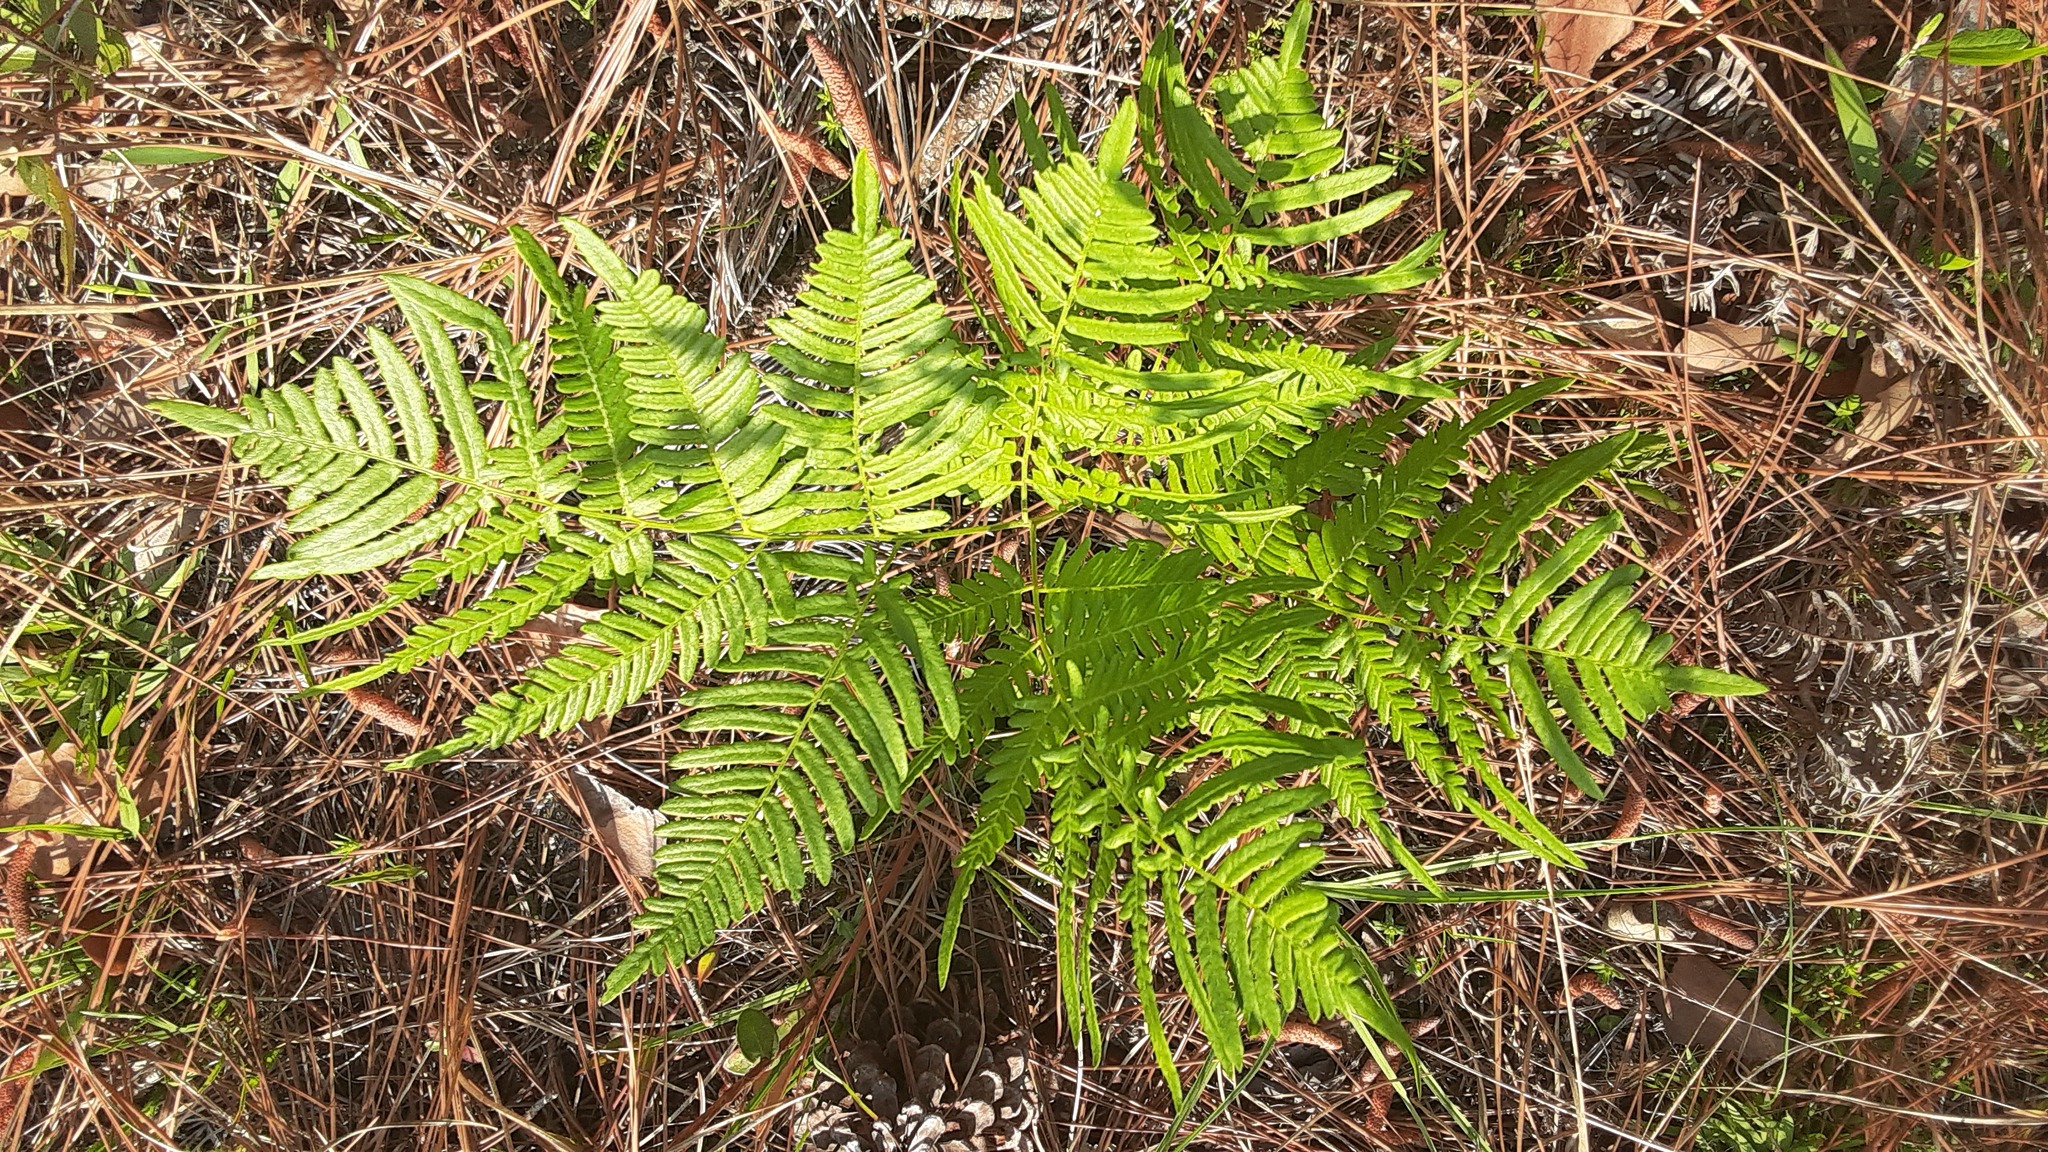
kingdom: Plantae
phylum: Tracheophyta
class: Polypodiopsida
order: Polypodiales
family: Dennstaedtiaceae
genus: Pteridium
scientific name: Pteridium aquilinum
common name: Bracken
